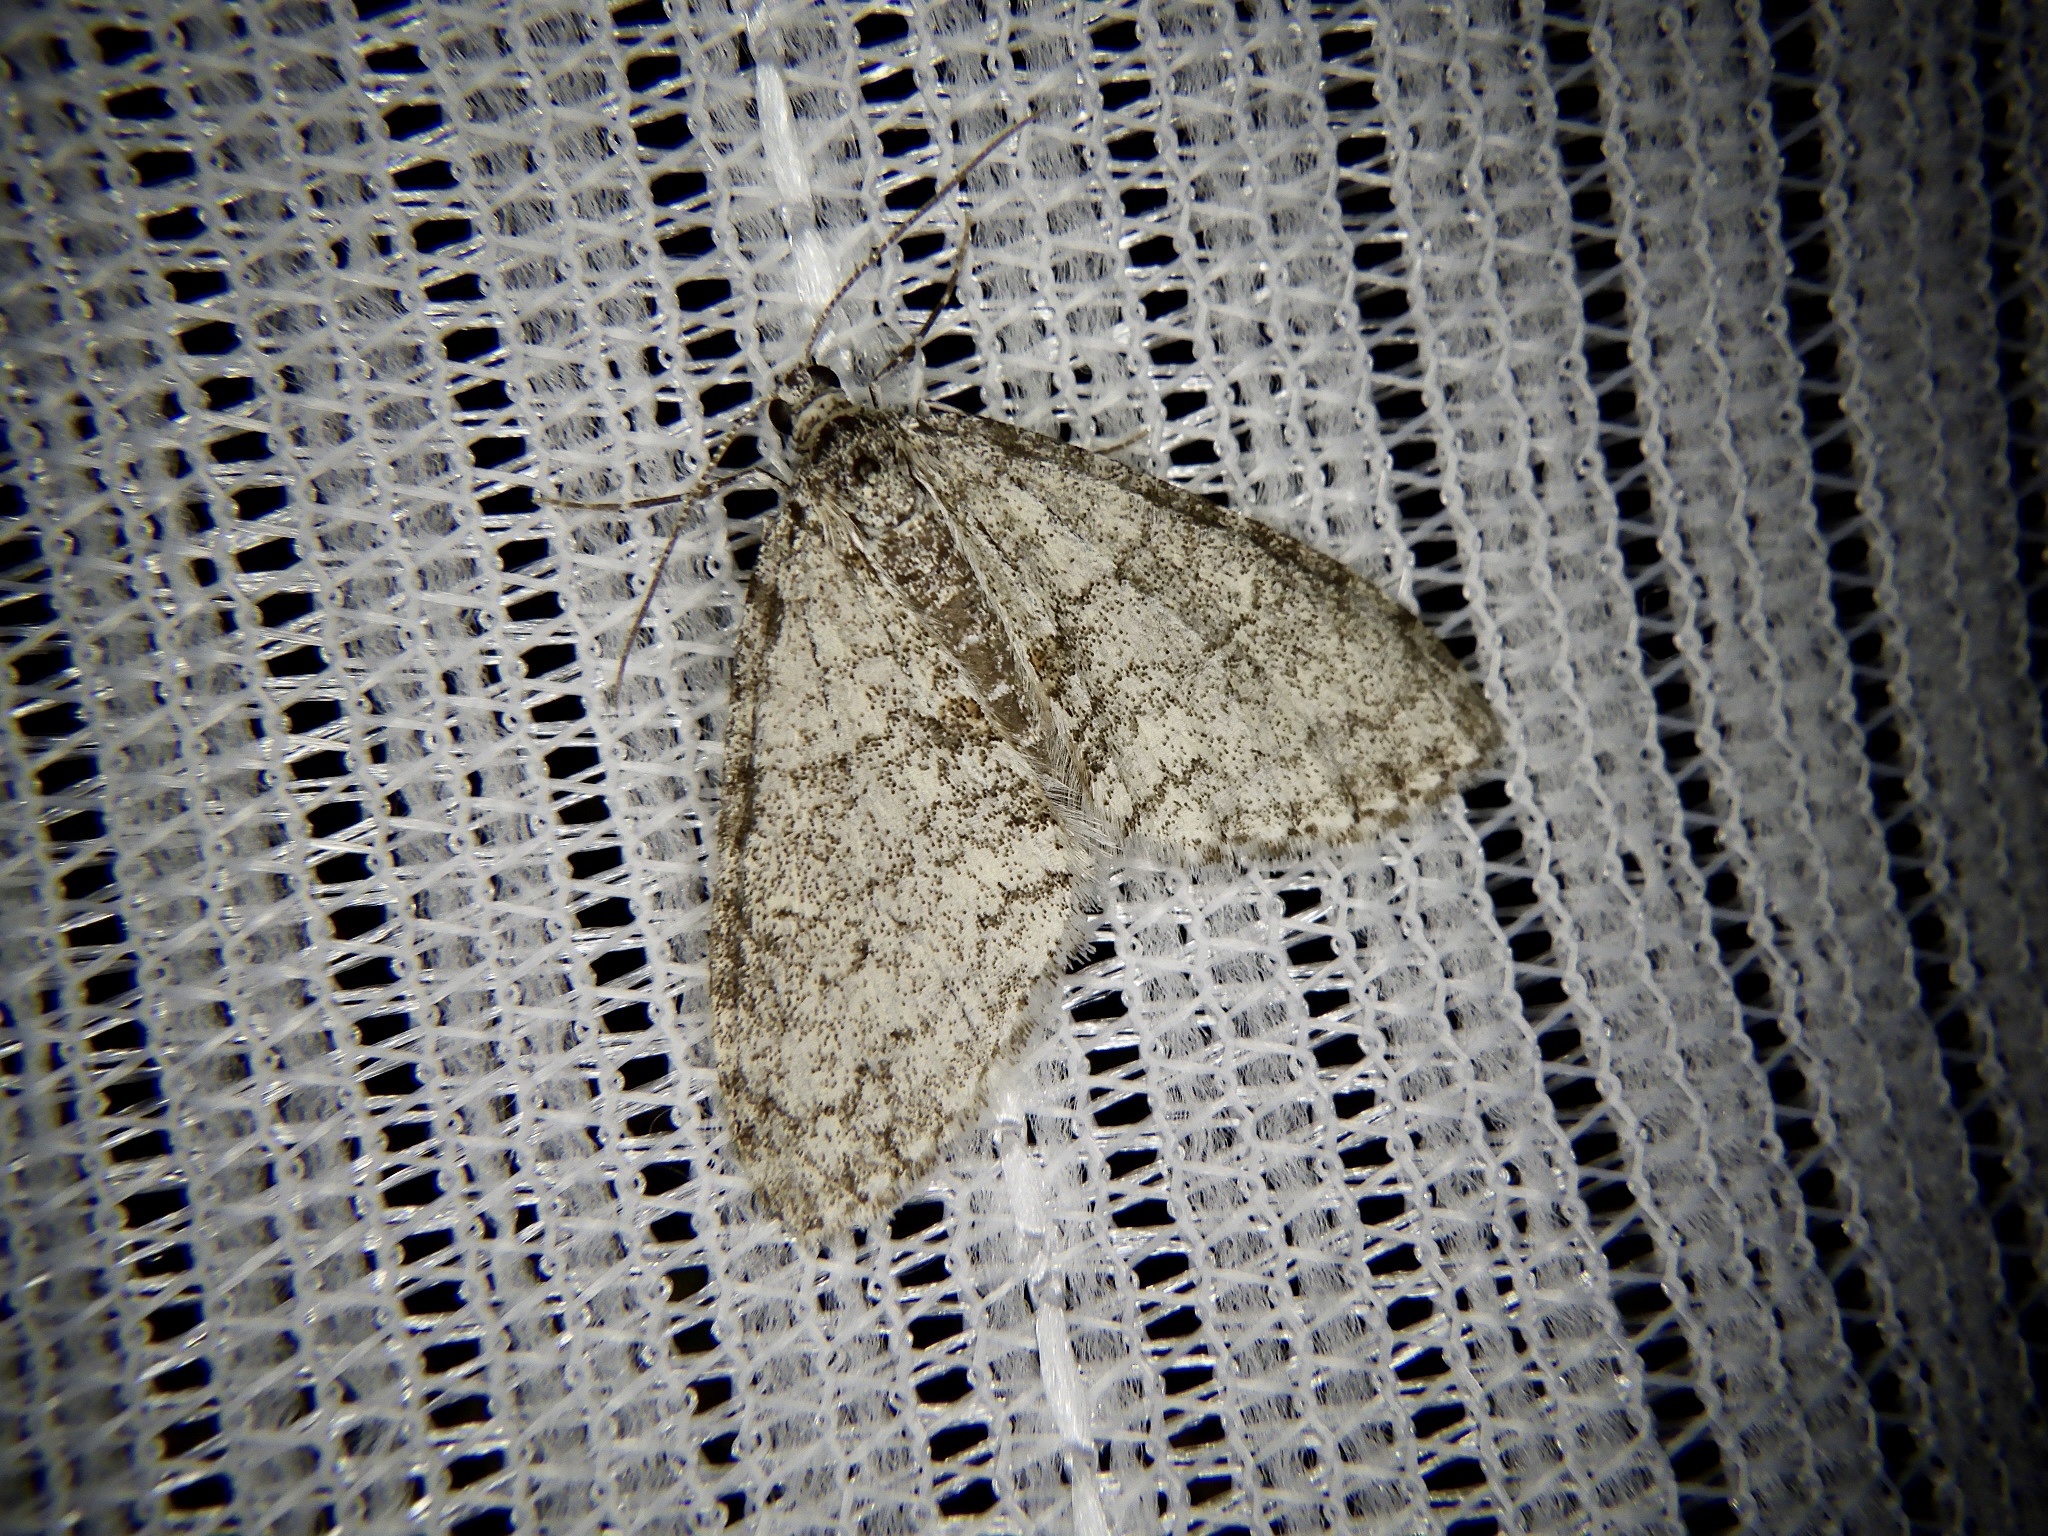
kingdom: Animalia
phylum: Arthropoda
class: Insecta
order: Lepidoptera
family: Geometridae
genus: Trichopteryx
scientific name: Trichopteryx hemana
